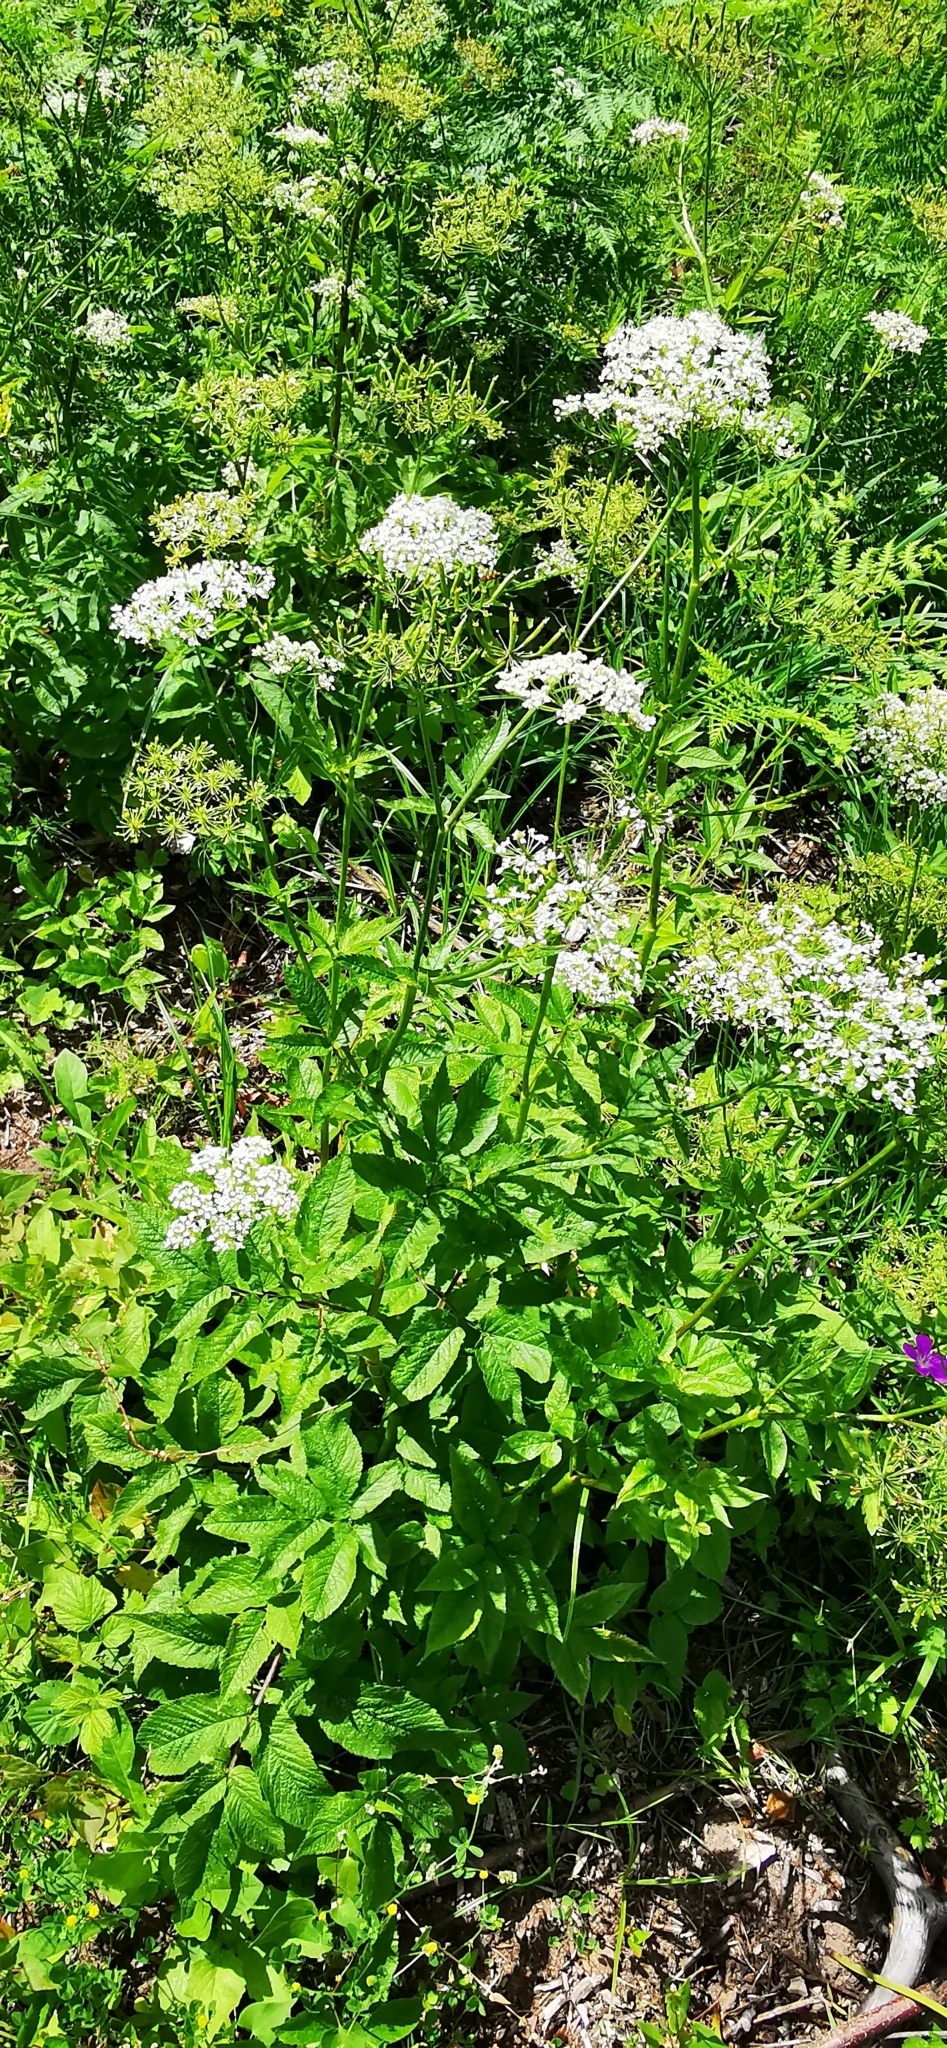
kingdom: Plantae
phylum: Tracheophyta
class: Magnoliopsida
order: Apiales
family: Apiaceae
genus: Aegopodium
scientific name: Aegopodium podagraria
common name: Ground-elder
